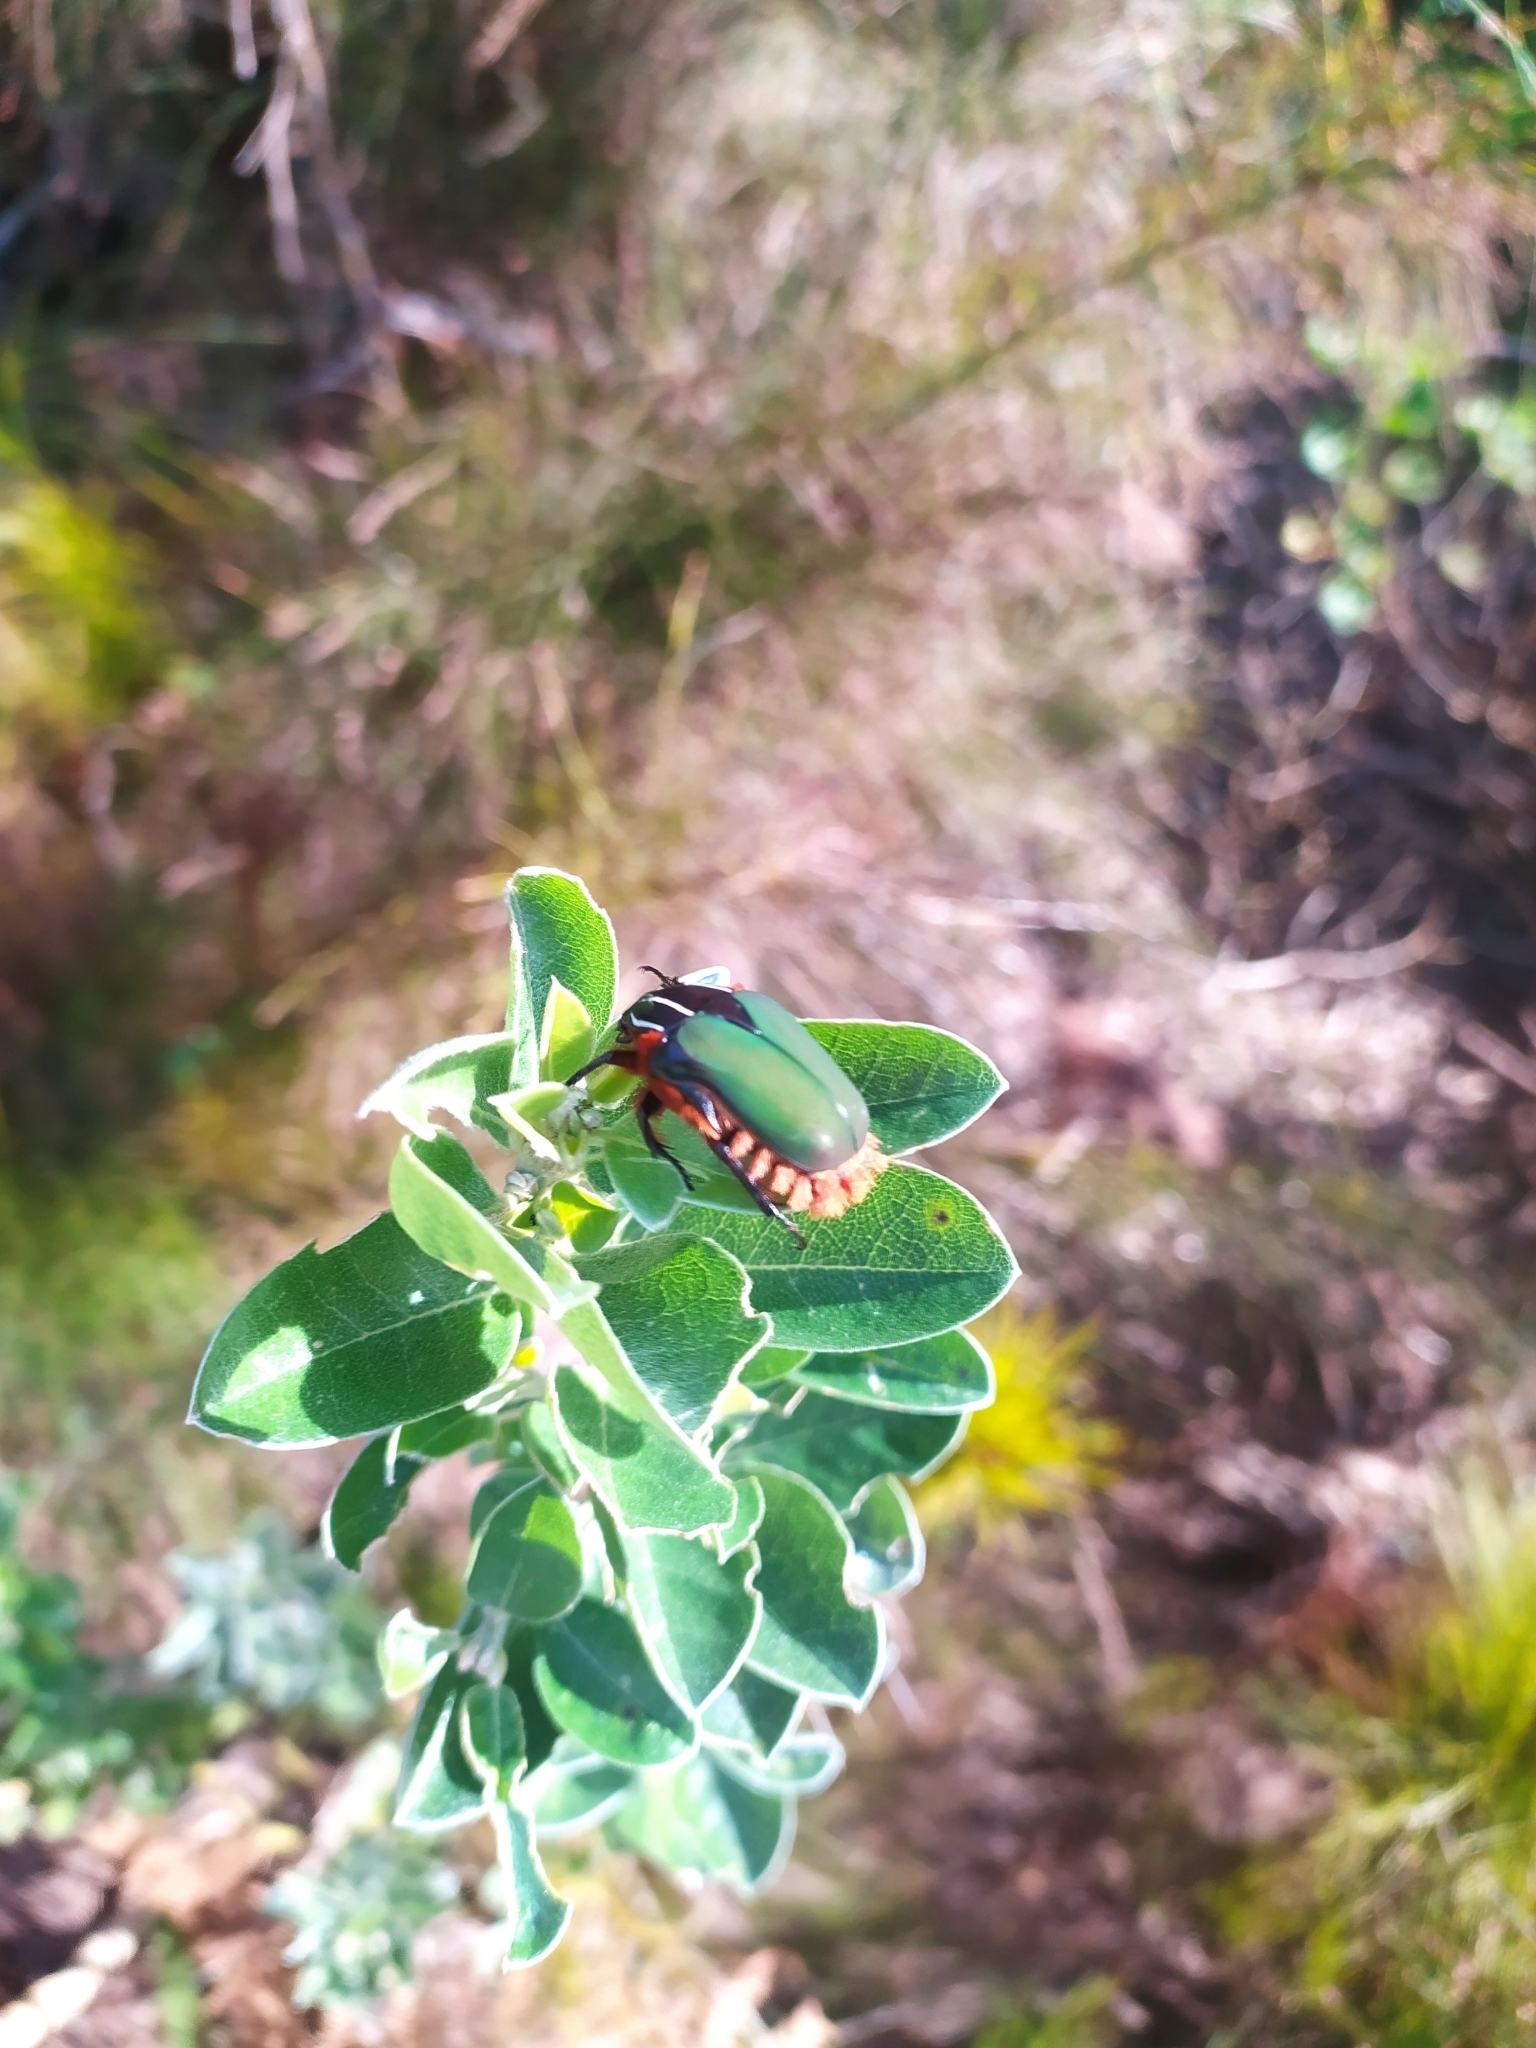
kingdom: Animalia
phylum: Arthropoda
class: Insecta
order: Coleoptera
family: Scarabaeidae
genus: Trichostetha
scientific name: Trichostetha fascicularis
